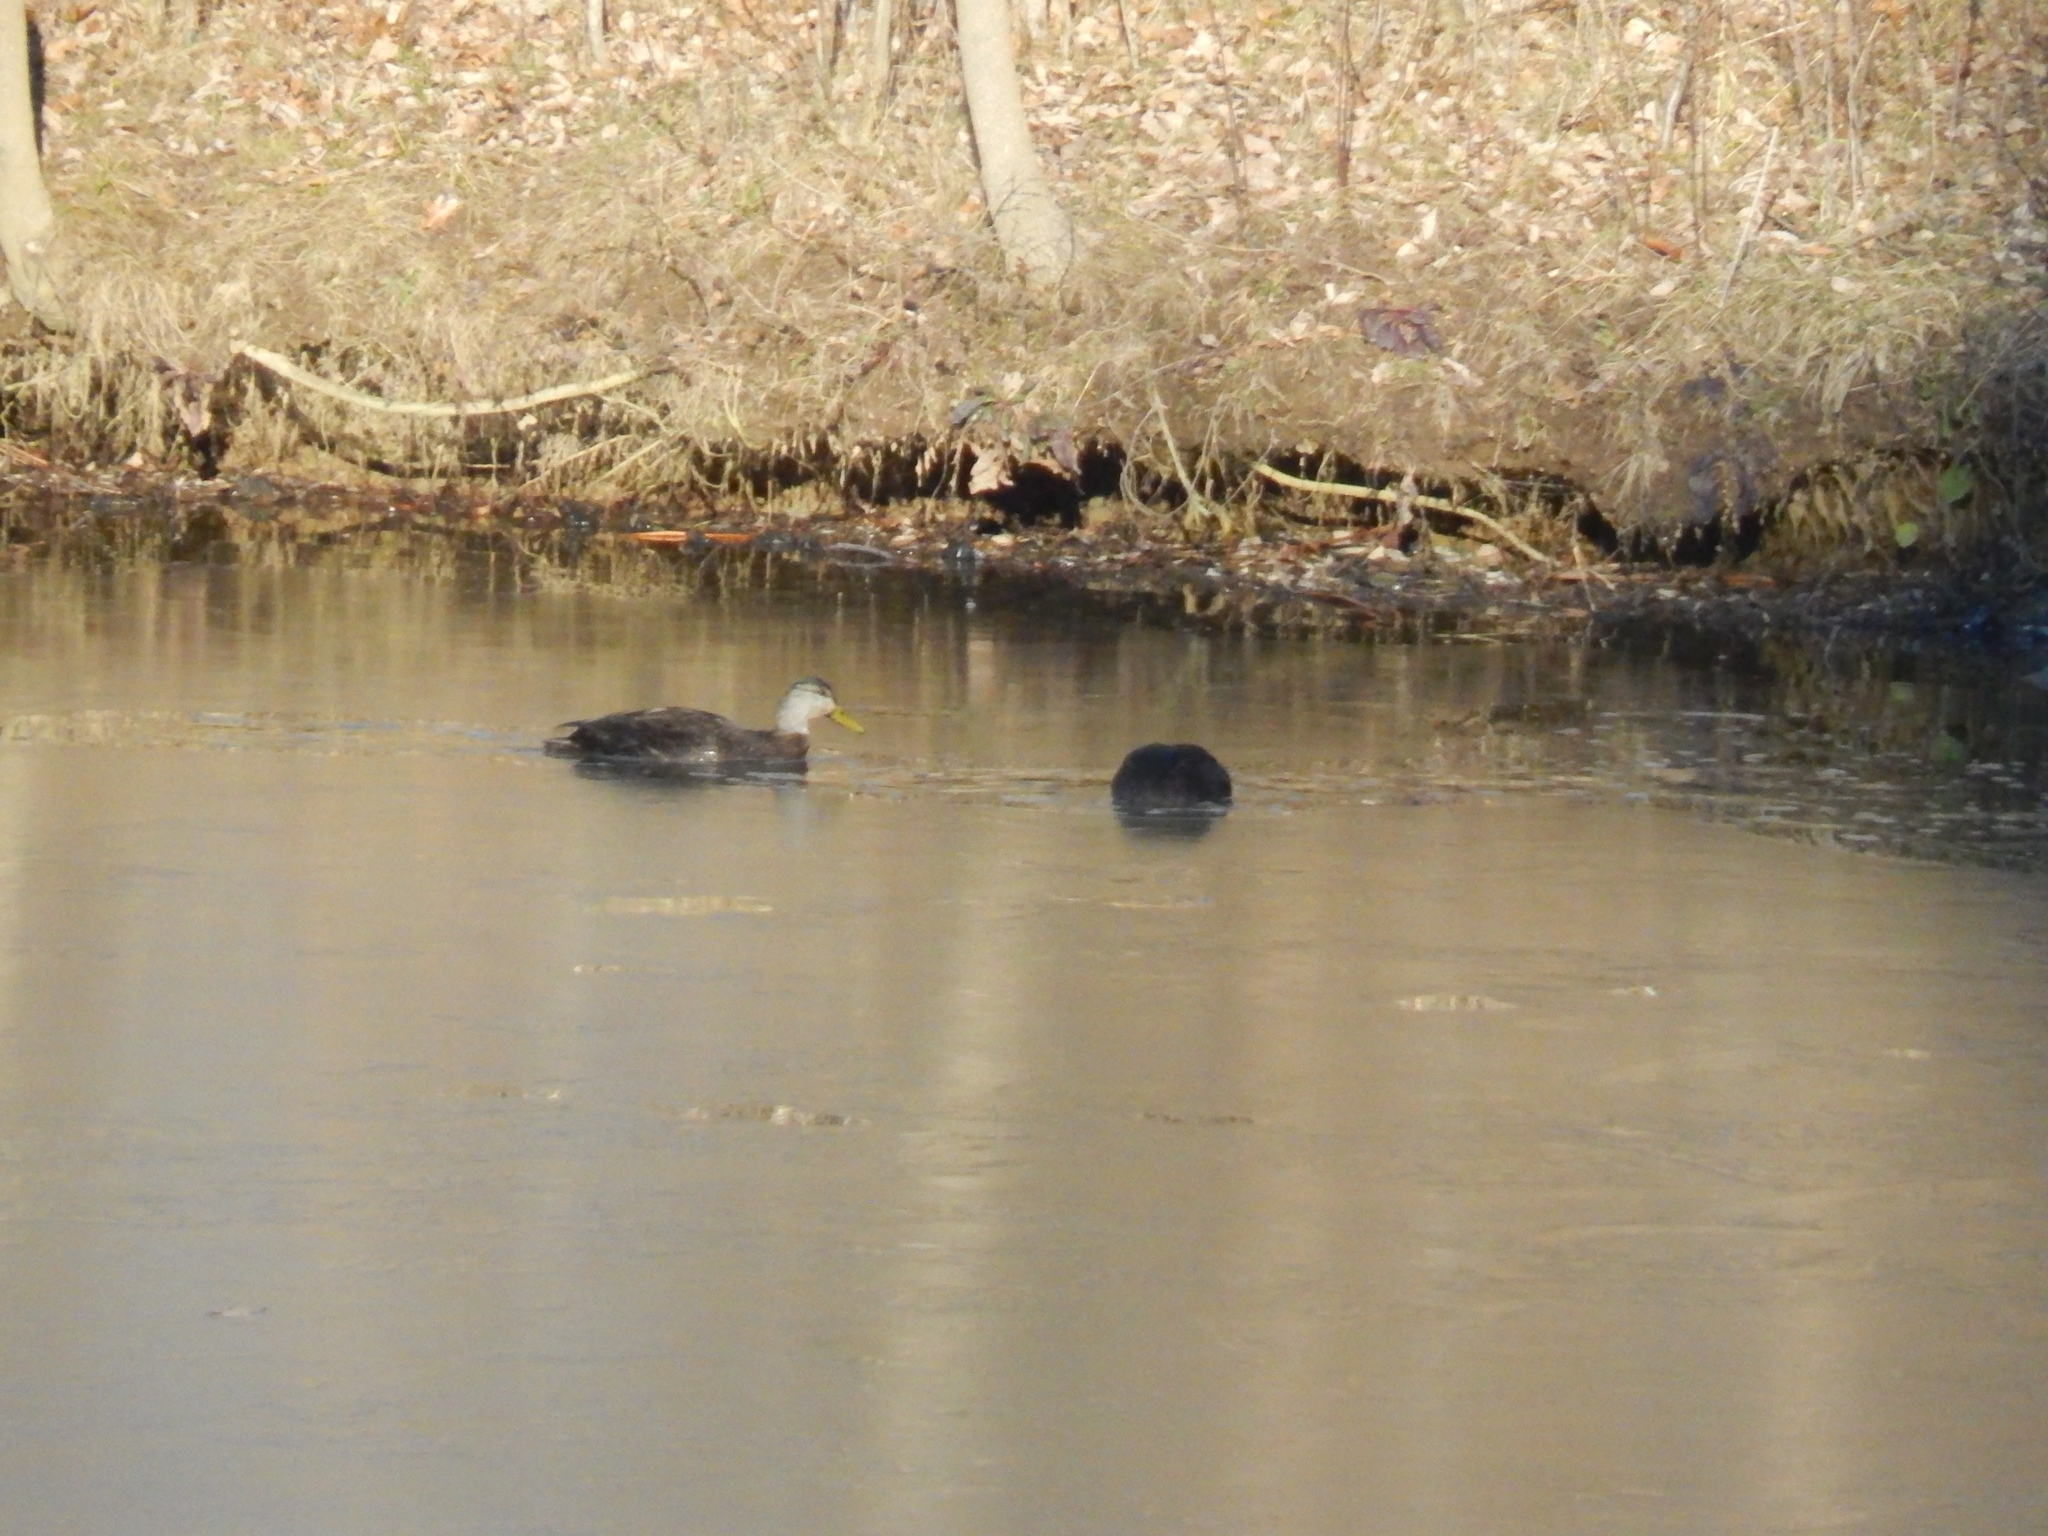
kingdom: Animalia
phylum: Chordata
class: Aves
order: Anseriformes
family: Anatidae
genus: Anas
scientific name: Anas rubripes
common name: American black duck
